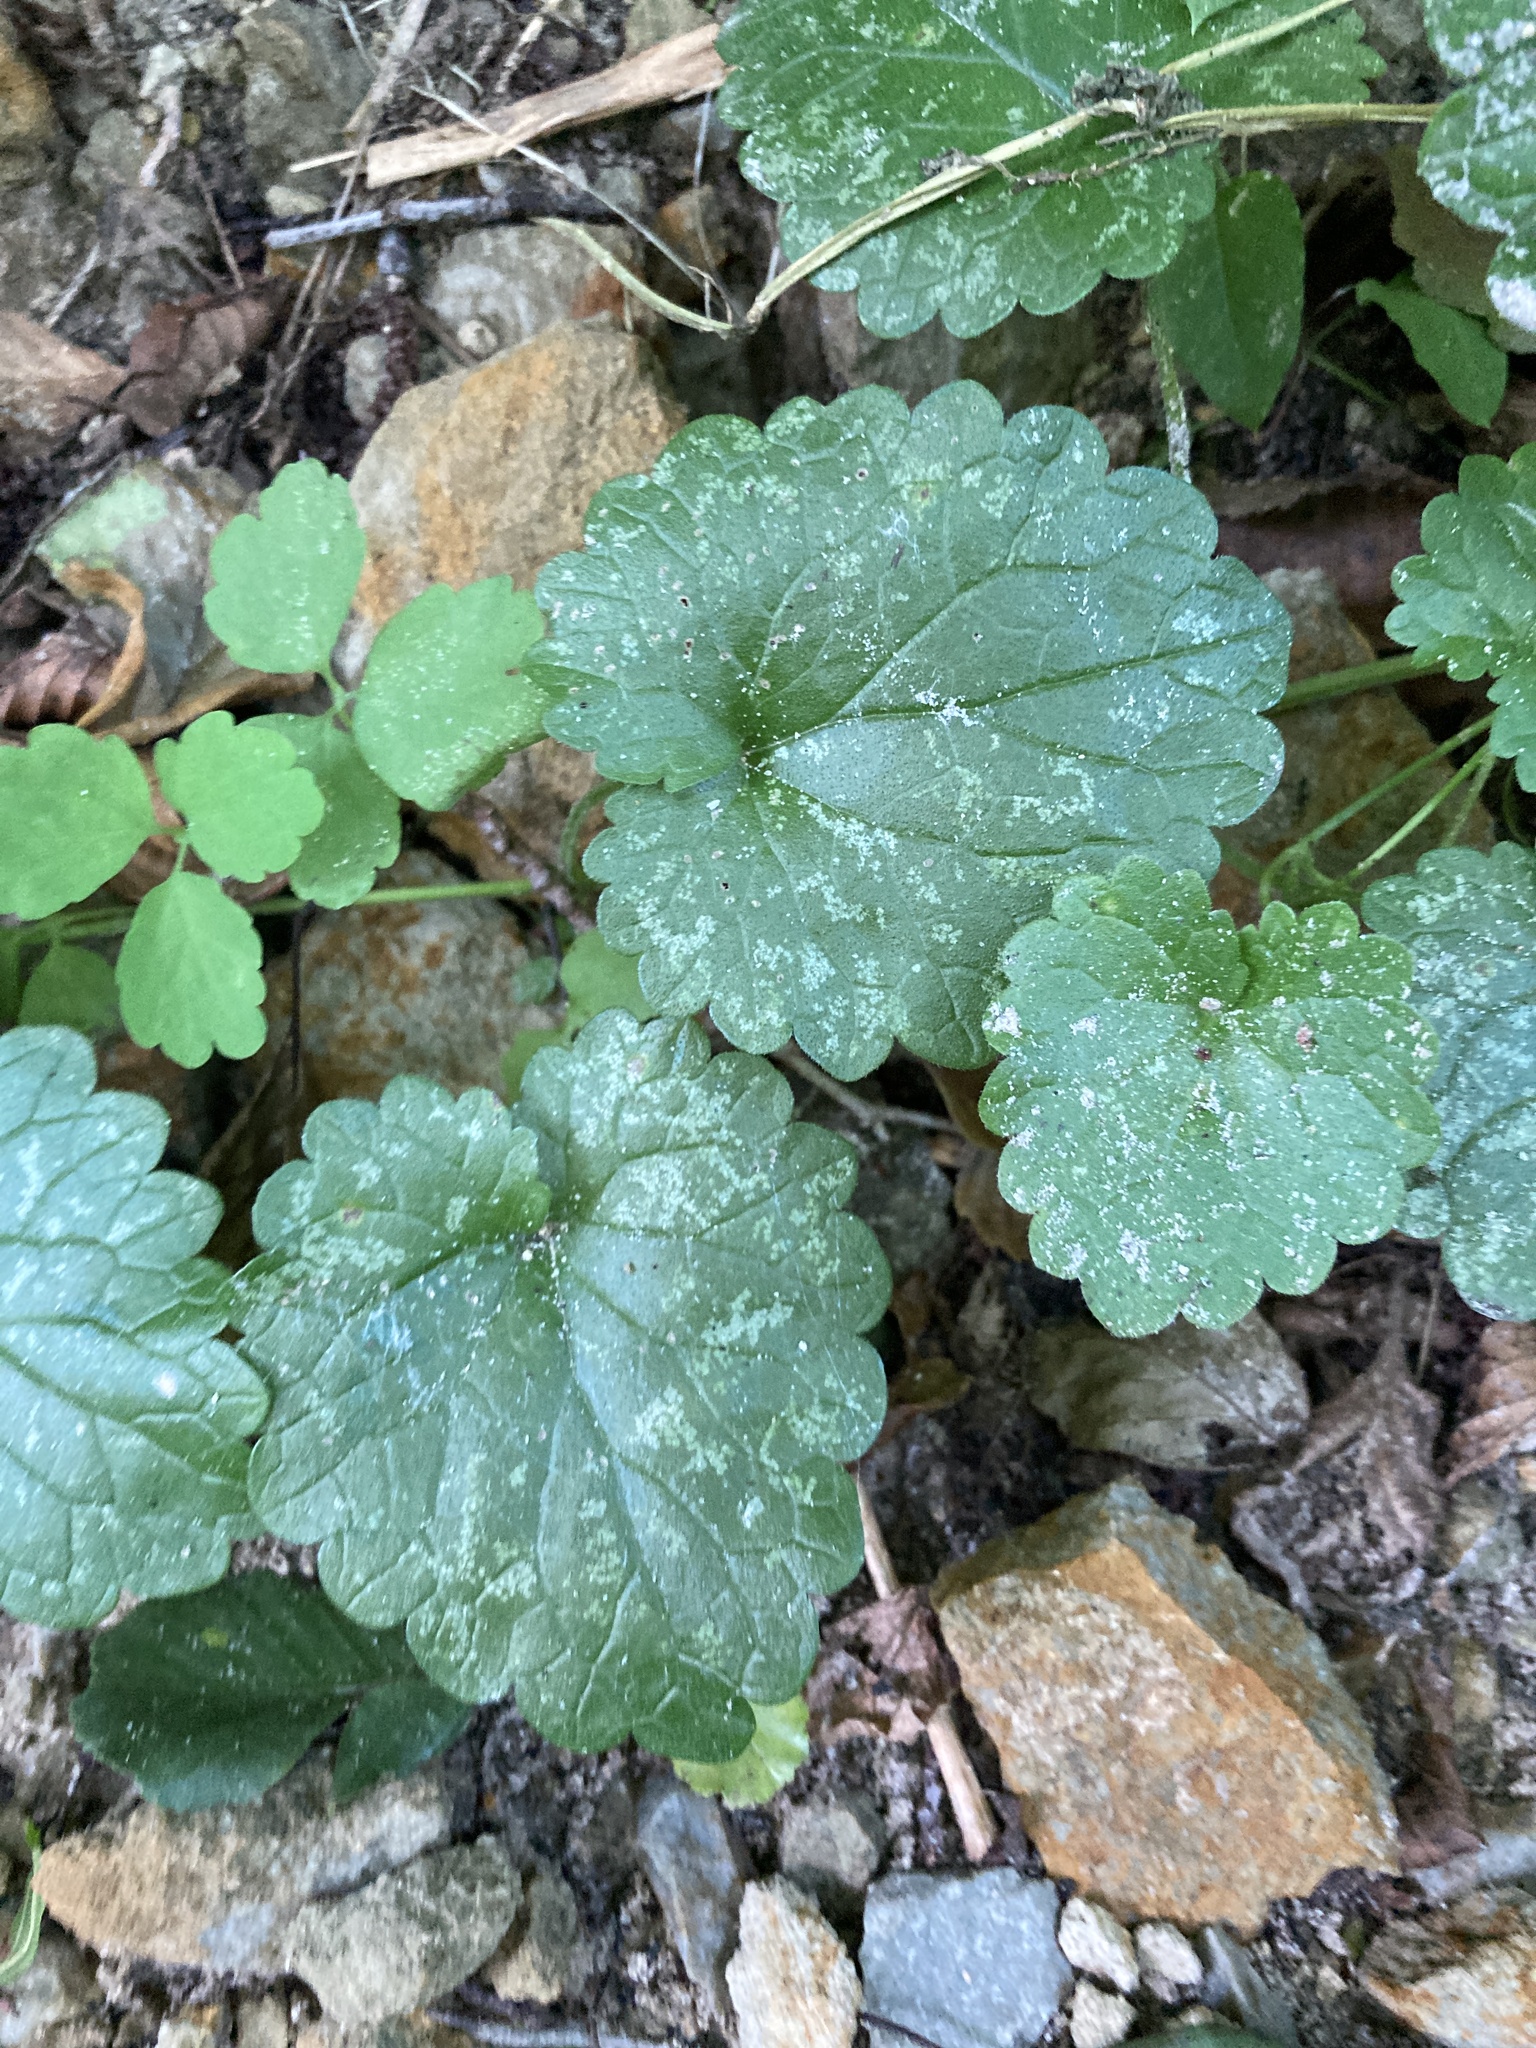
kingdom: Plantae
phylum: Tracheophyta
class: Magnoliopsida
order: Lamiales
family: Lamiaceae
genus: Glechoma
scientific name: Glechoma hederacea
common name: Ground ivy
